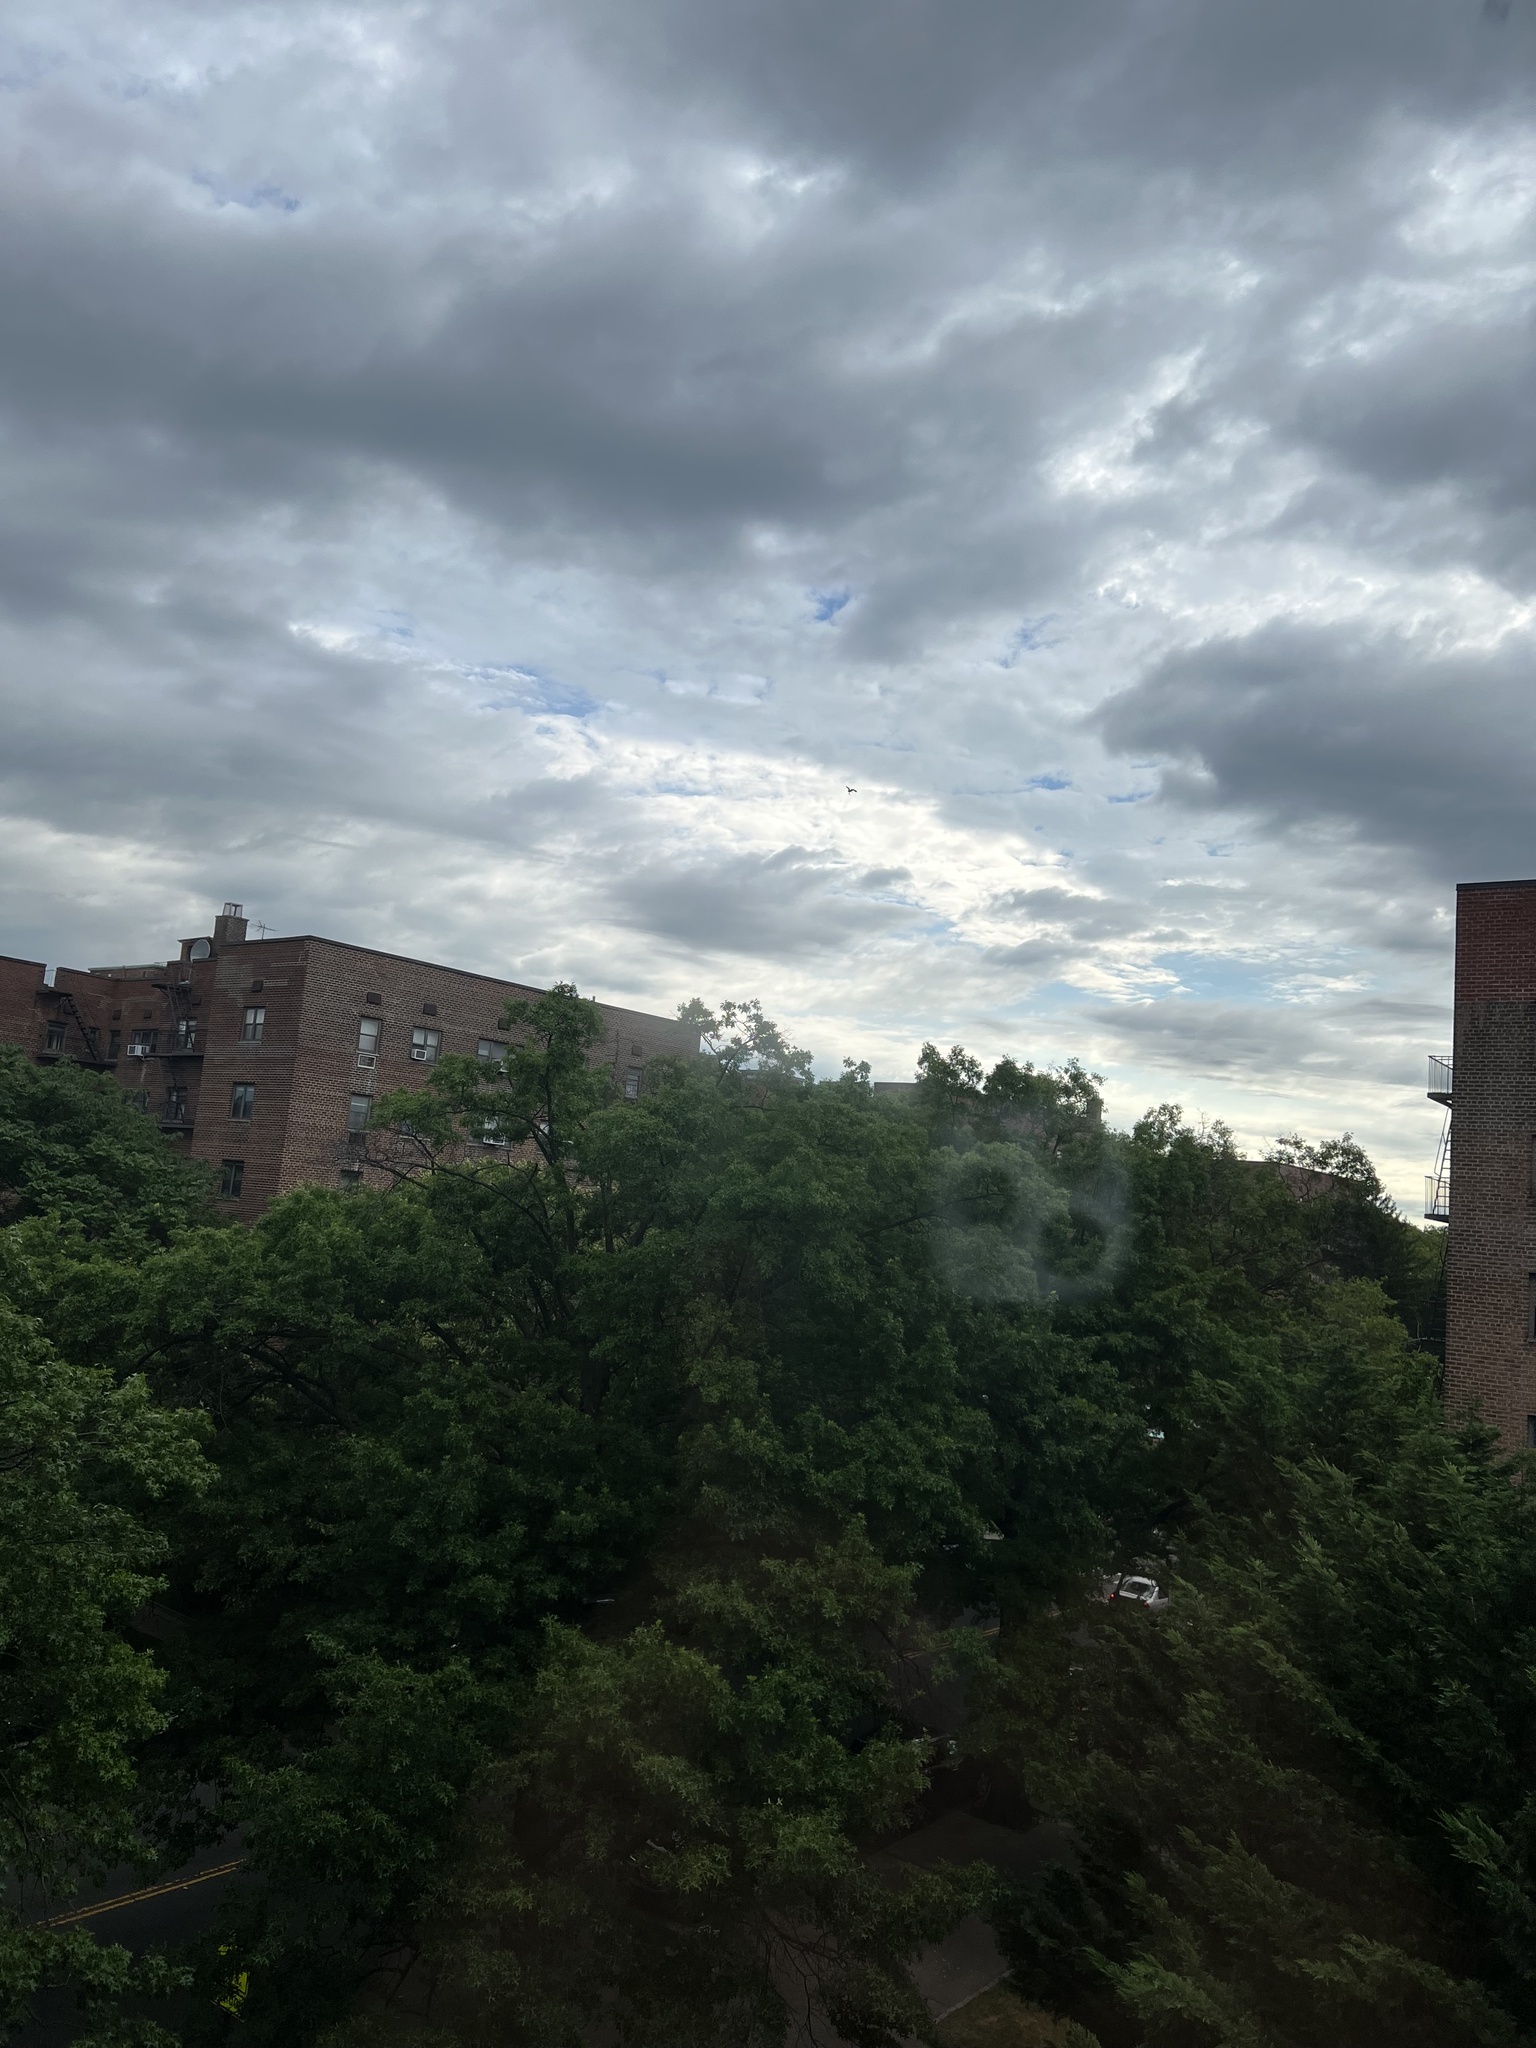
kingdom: Animalia
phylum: Chordata
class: Aves
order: Accipitriformes
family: Pandionidae
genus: Pandion
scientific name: Pandion haliaetus
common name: Osprey
